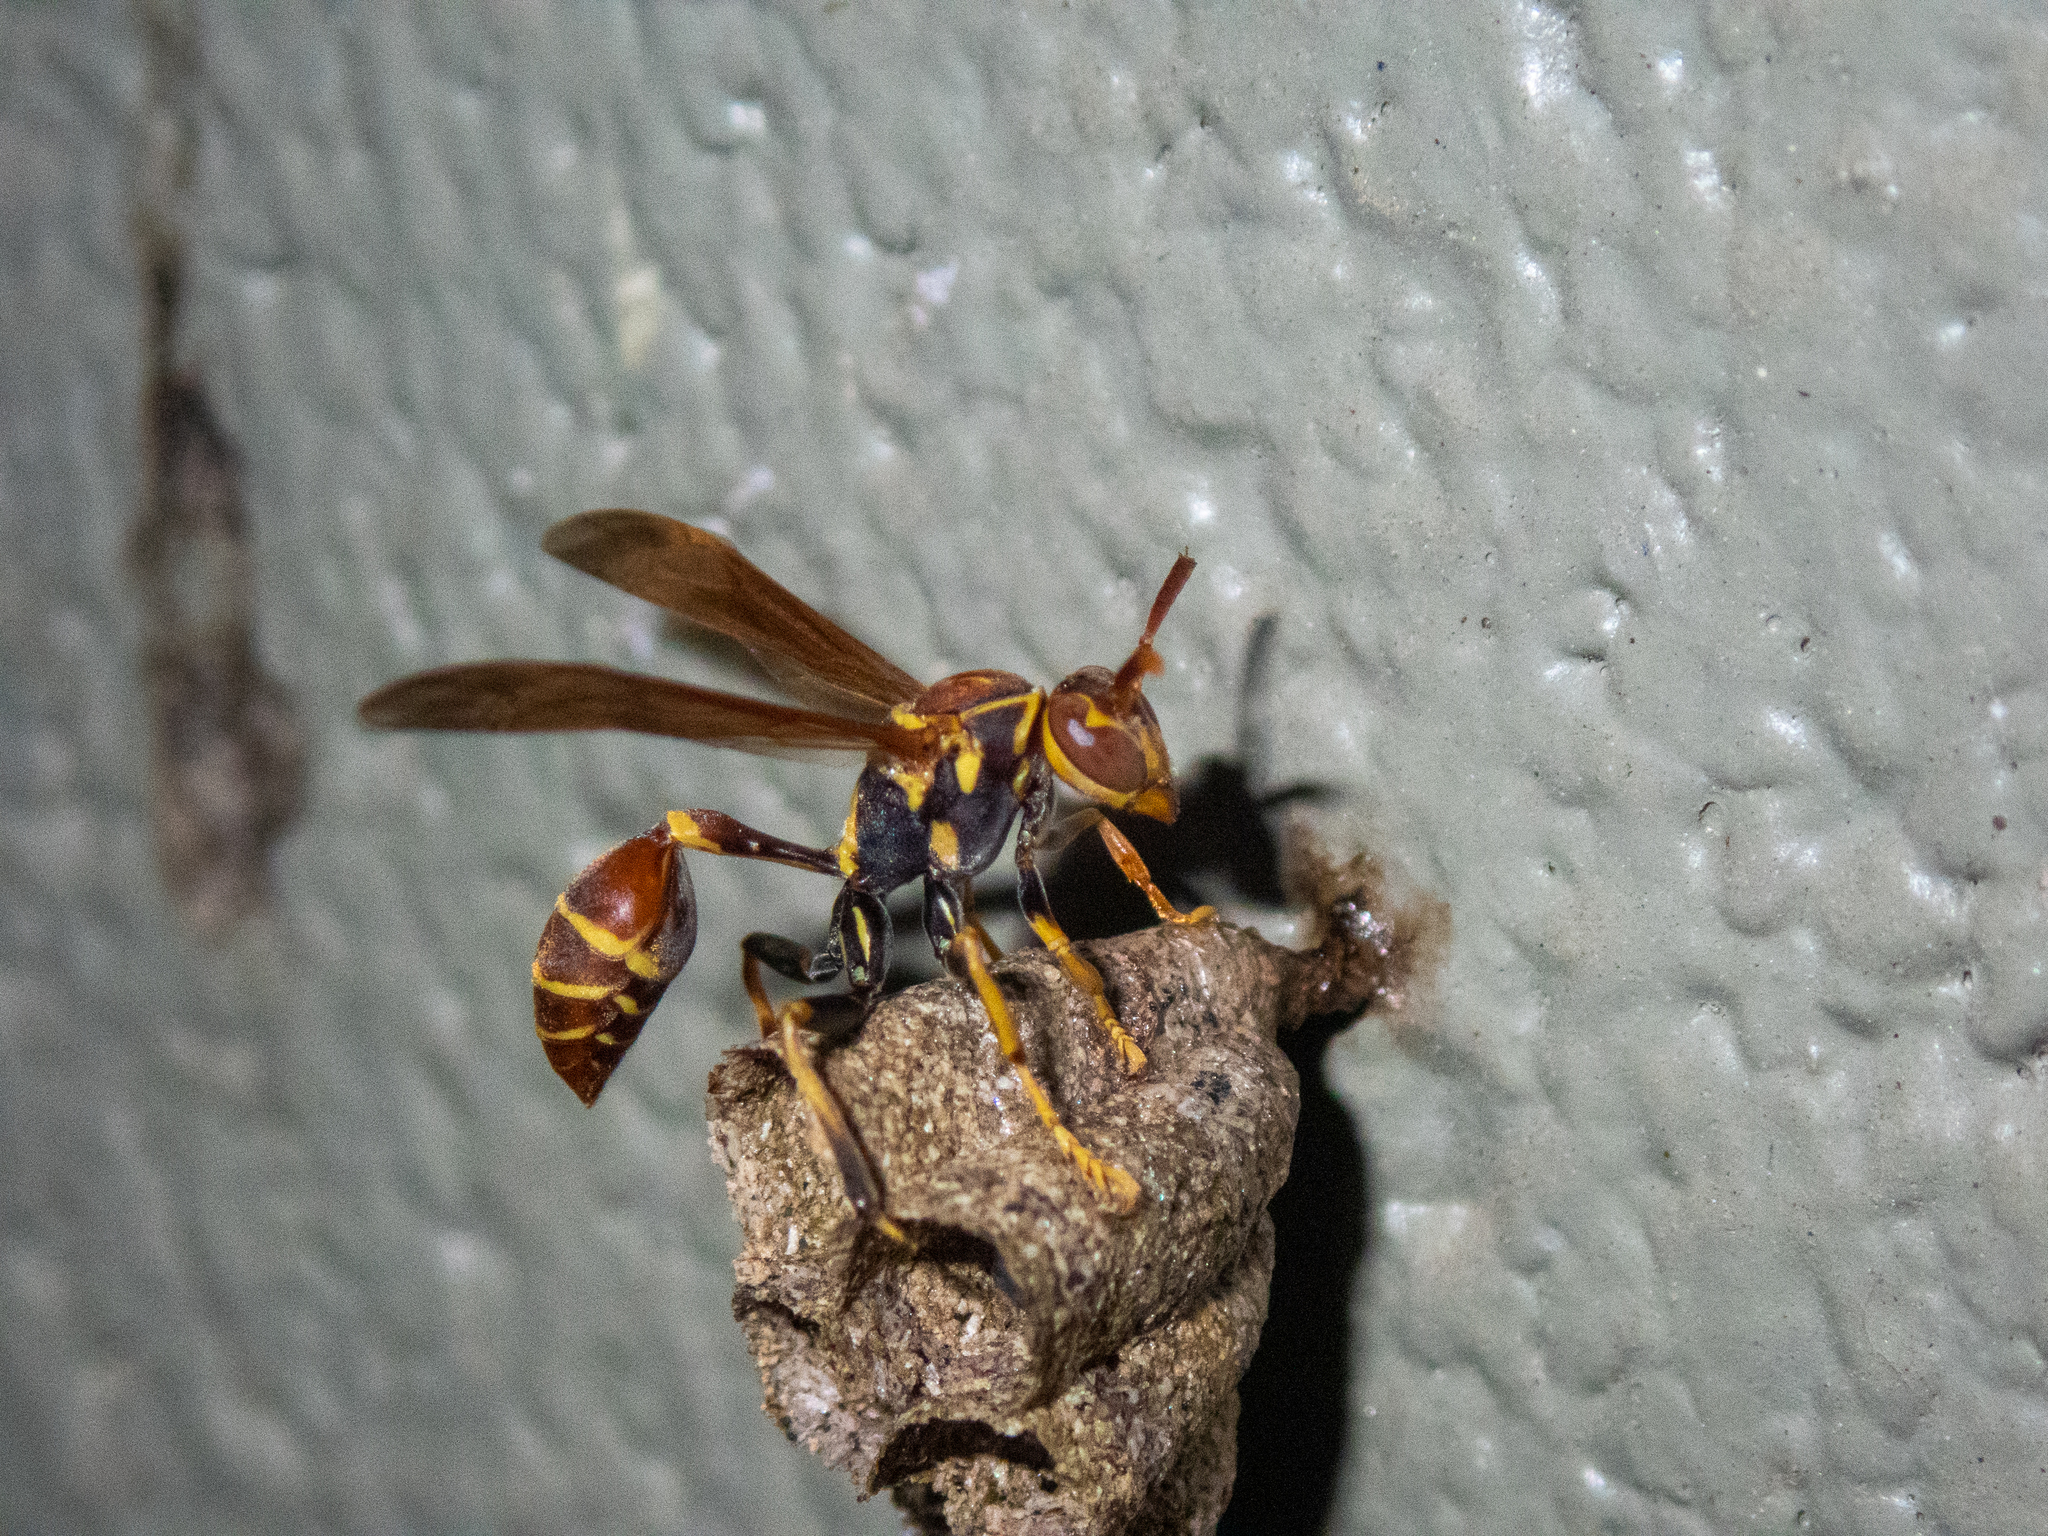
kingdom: Animalia
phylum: Arthropoda
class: Insecta
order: Hymenoptera
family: Vespidae
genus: Mischocyttarus
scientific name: Mischocyttarus mexicanus
